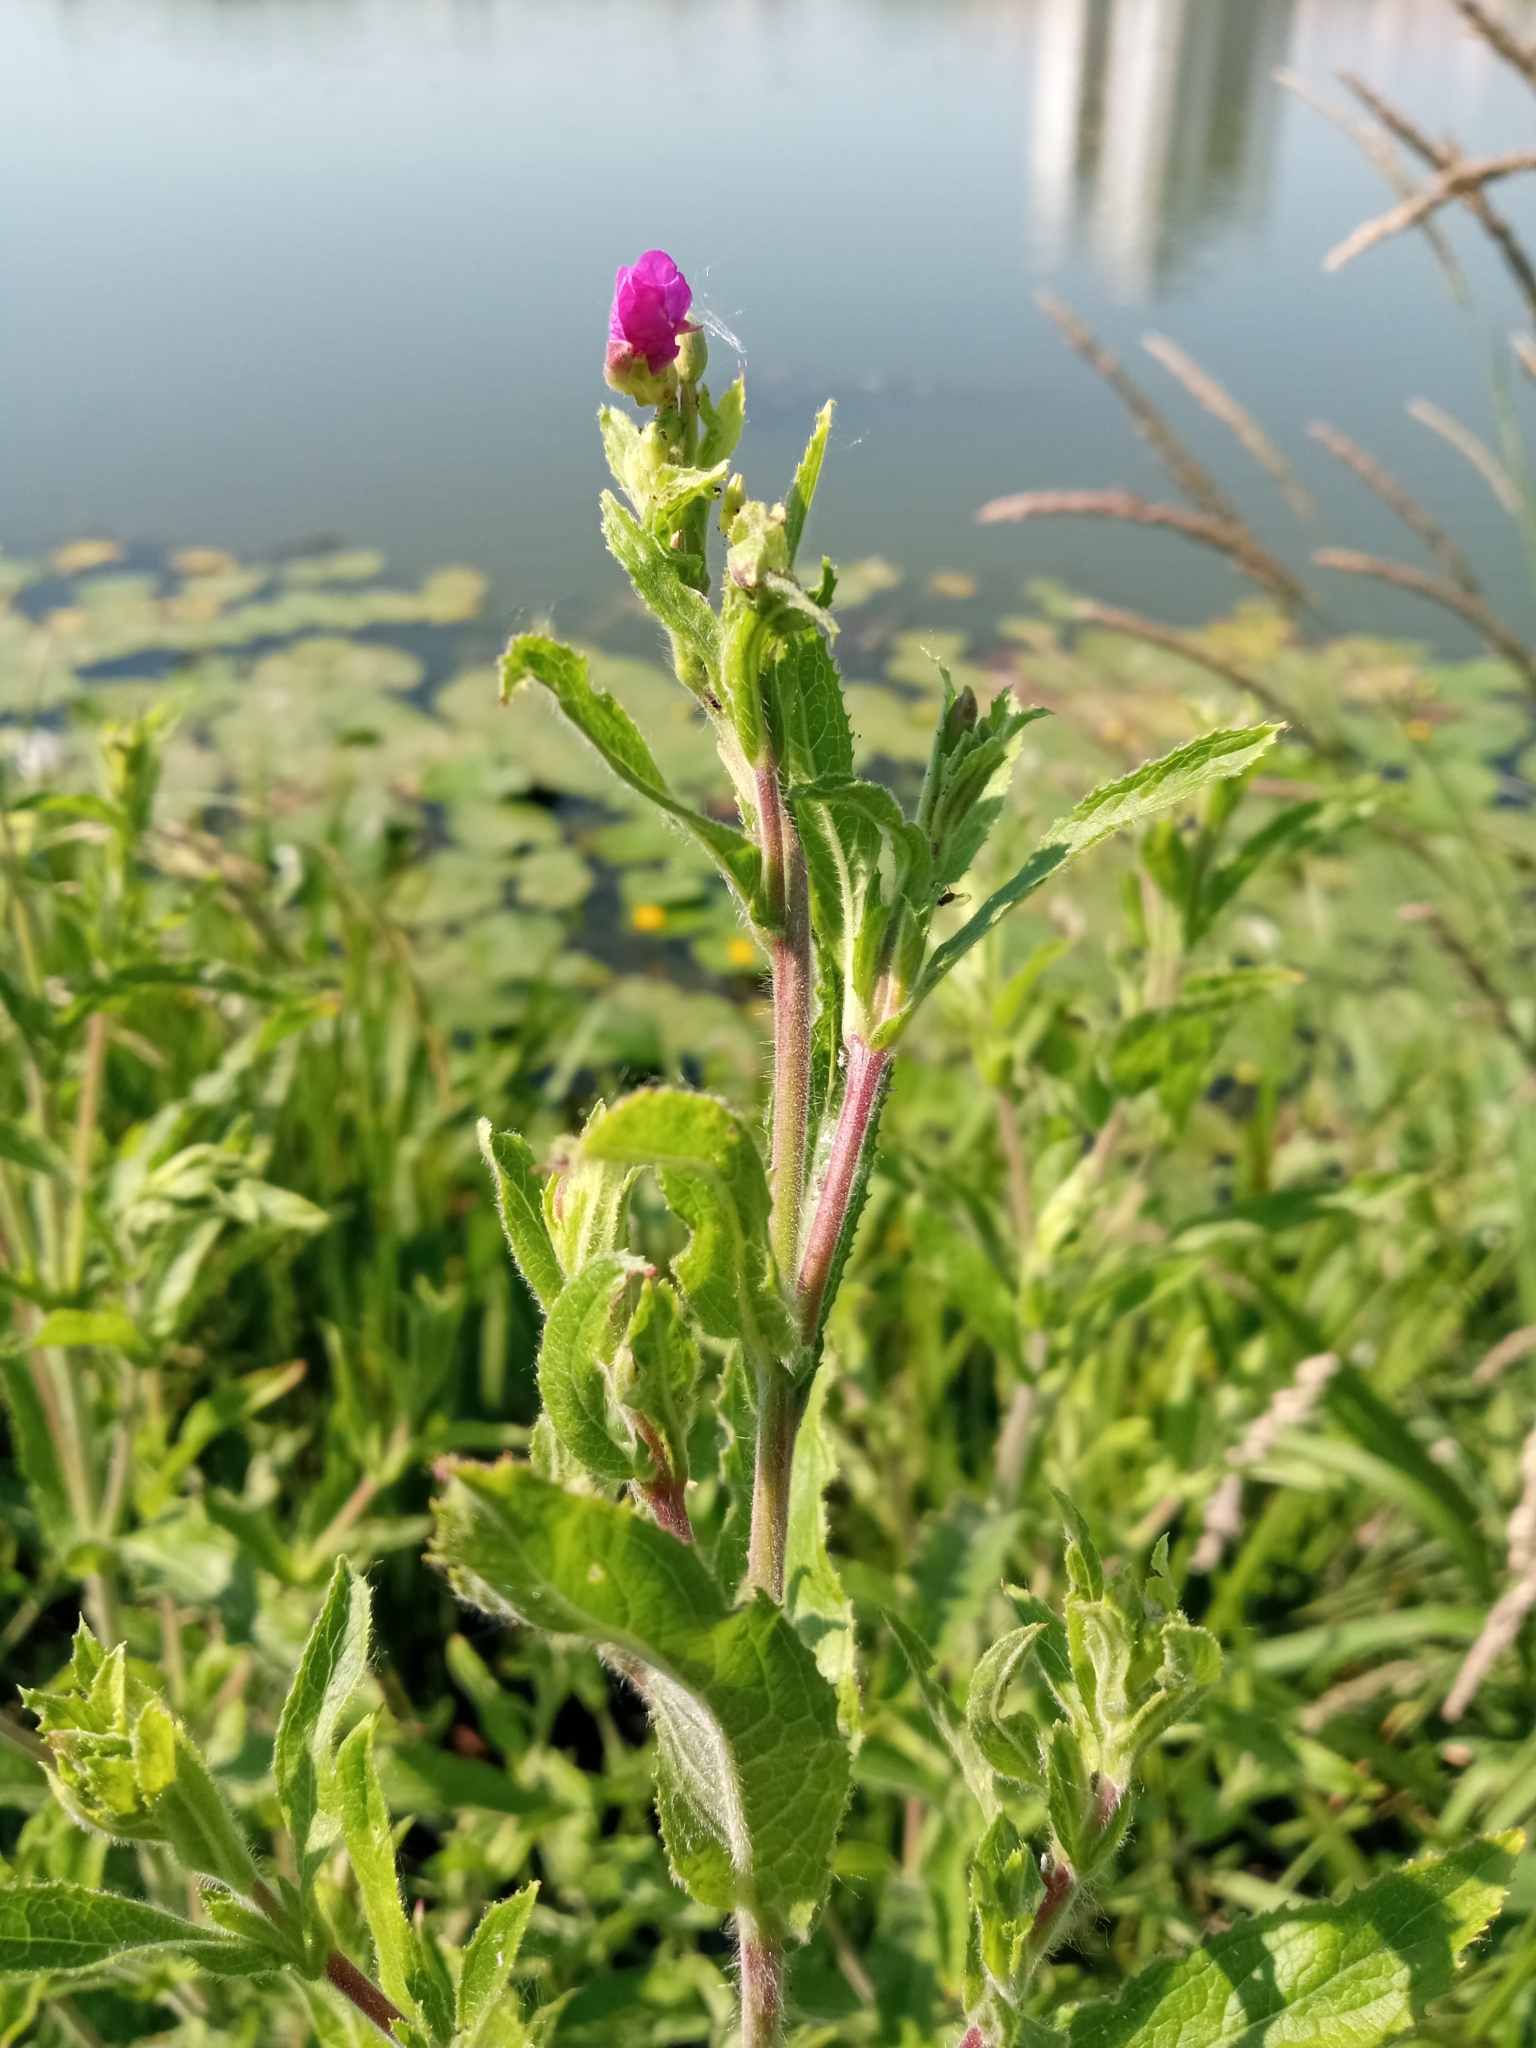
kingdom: Plantae
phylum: Tracheophyta
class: Magnoliopsida
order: Myrtales
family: Onagraceae
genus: Epilobium
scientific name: Epilobium hirsutum
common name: Great willowherb
